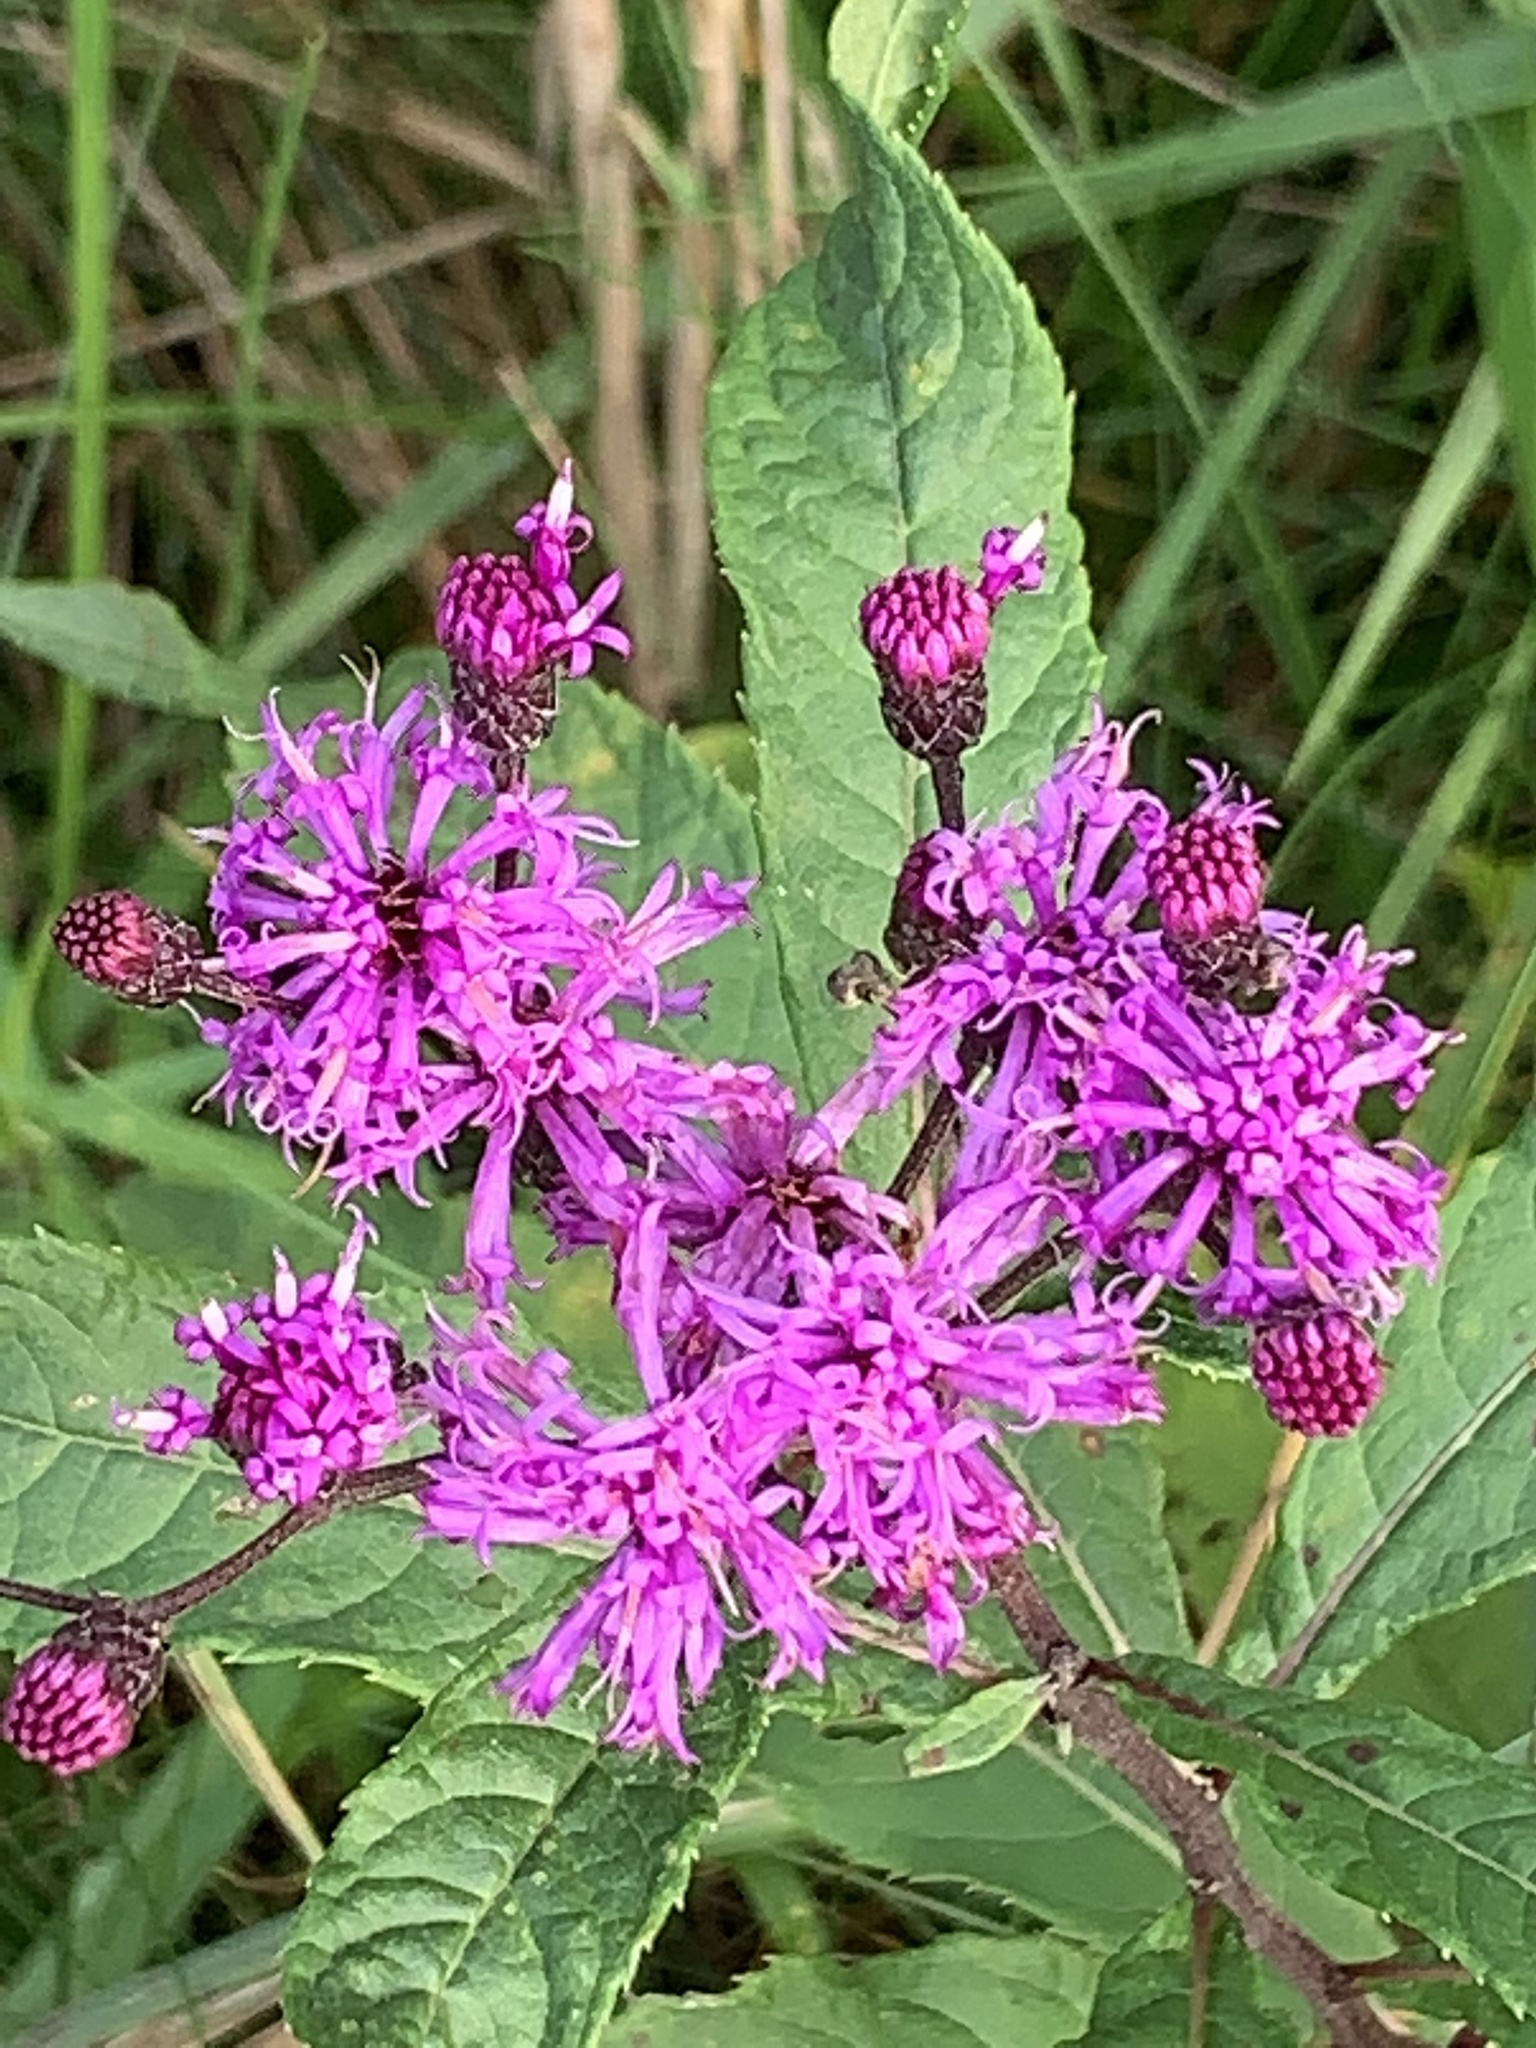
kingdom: Plantae
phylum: Tracheophyta
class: Magnoliopsida
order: Asterales
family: Asteraceae
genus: Vernonia
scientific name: Vernonia gigantea
